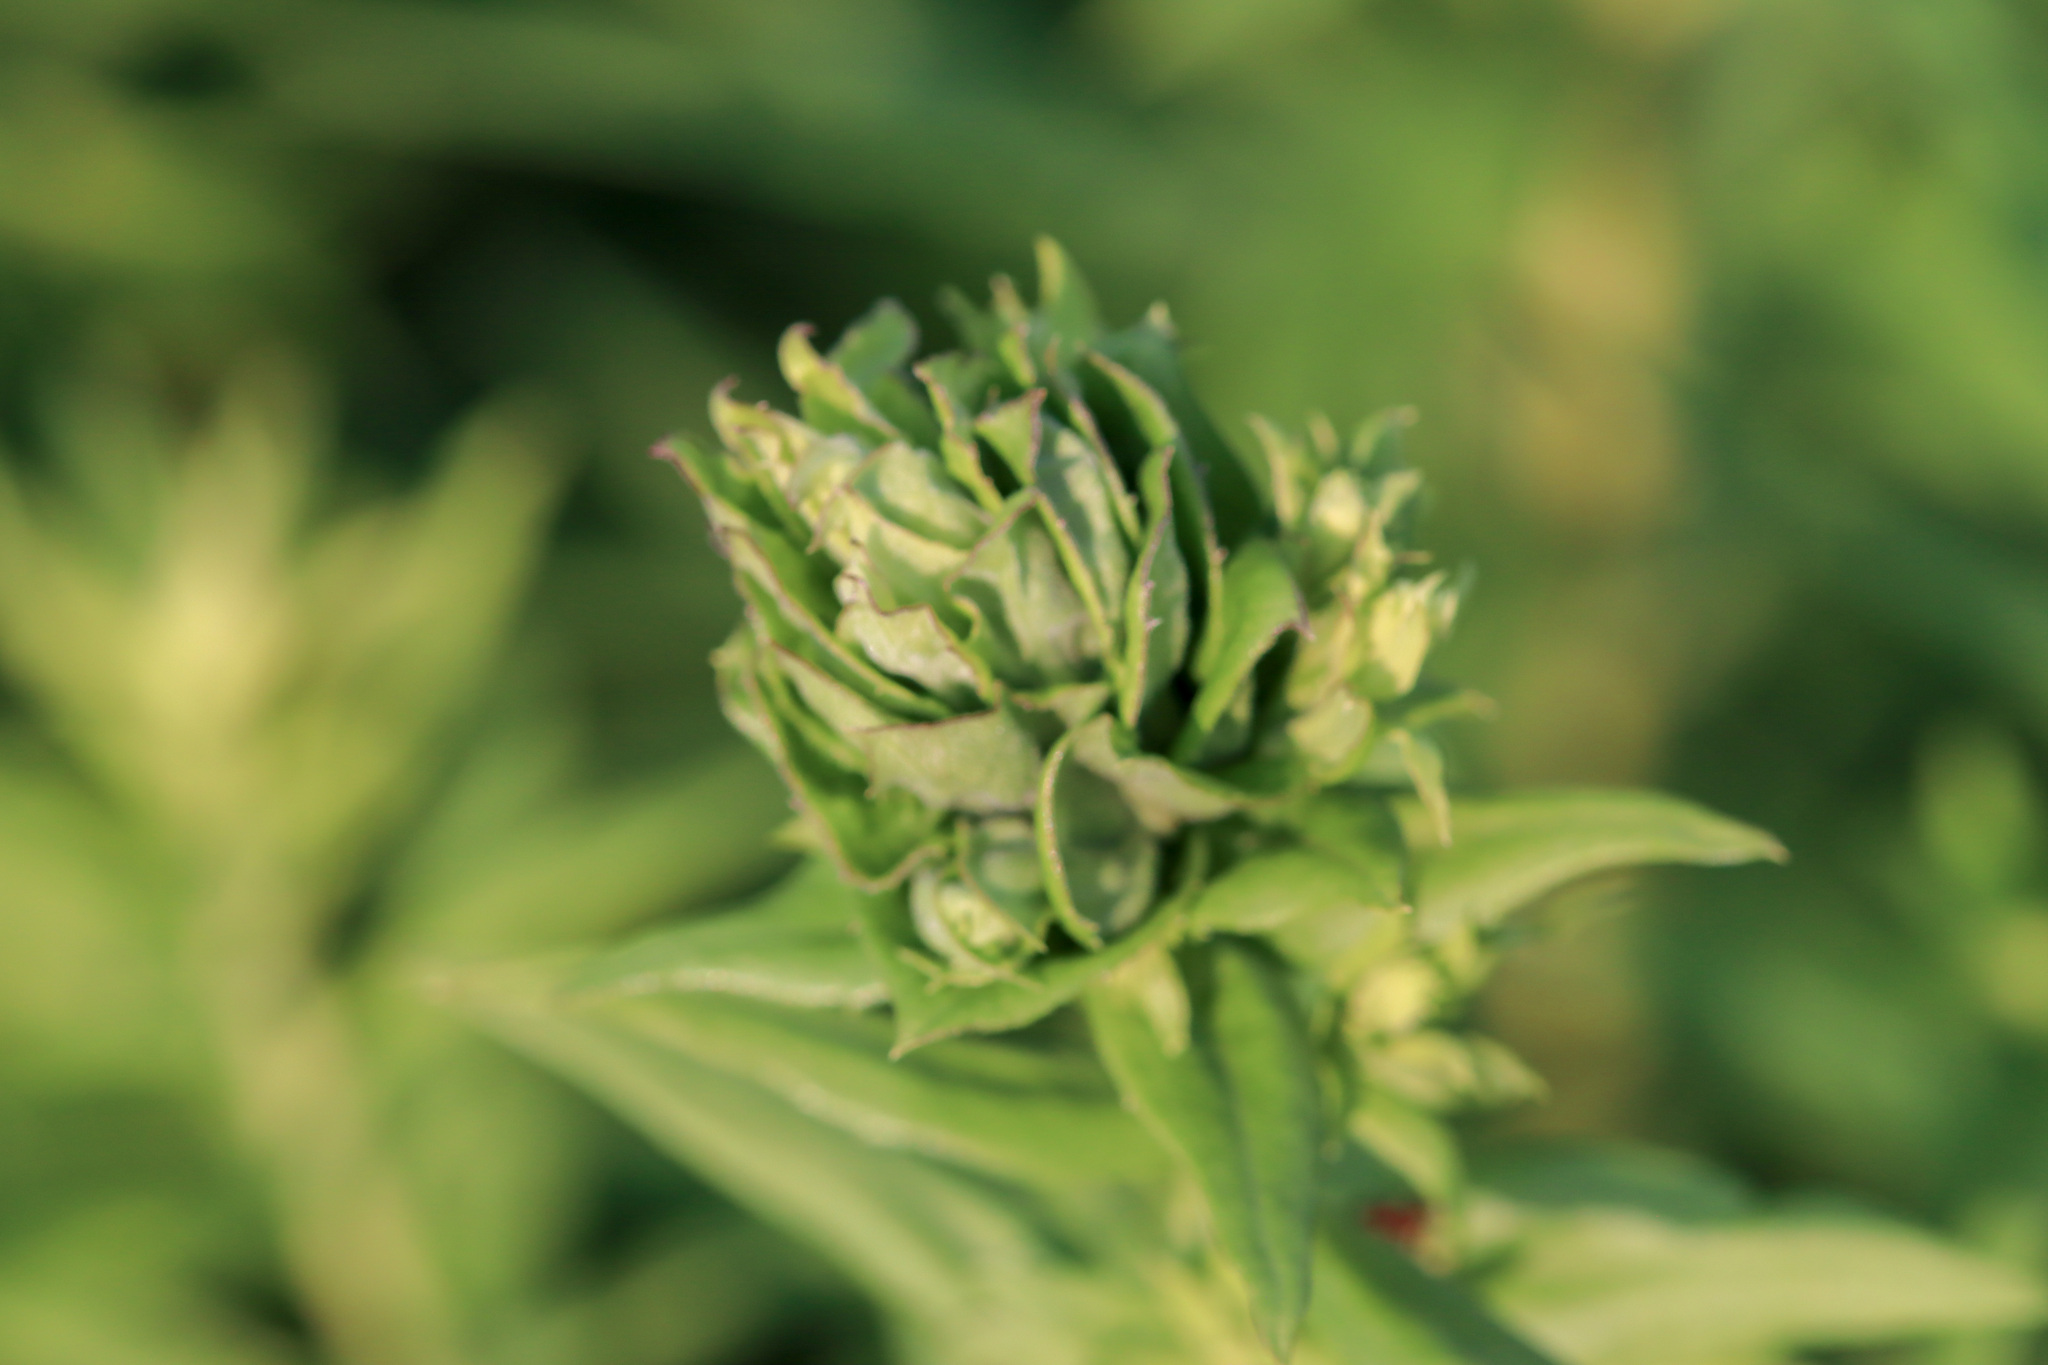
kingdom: Animalia
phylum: Arthropoda
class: Insecta
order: Diptera
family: Cecidomyiidae
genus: Rhopalomyia
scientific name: Rhopalomyia solidaginis
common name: Goldenrod bunch gall midge
